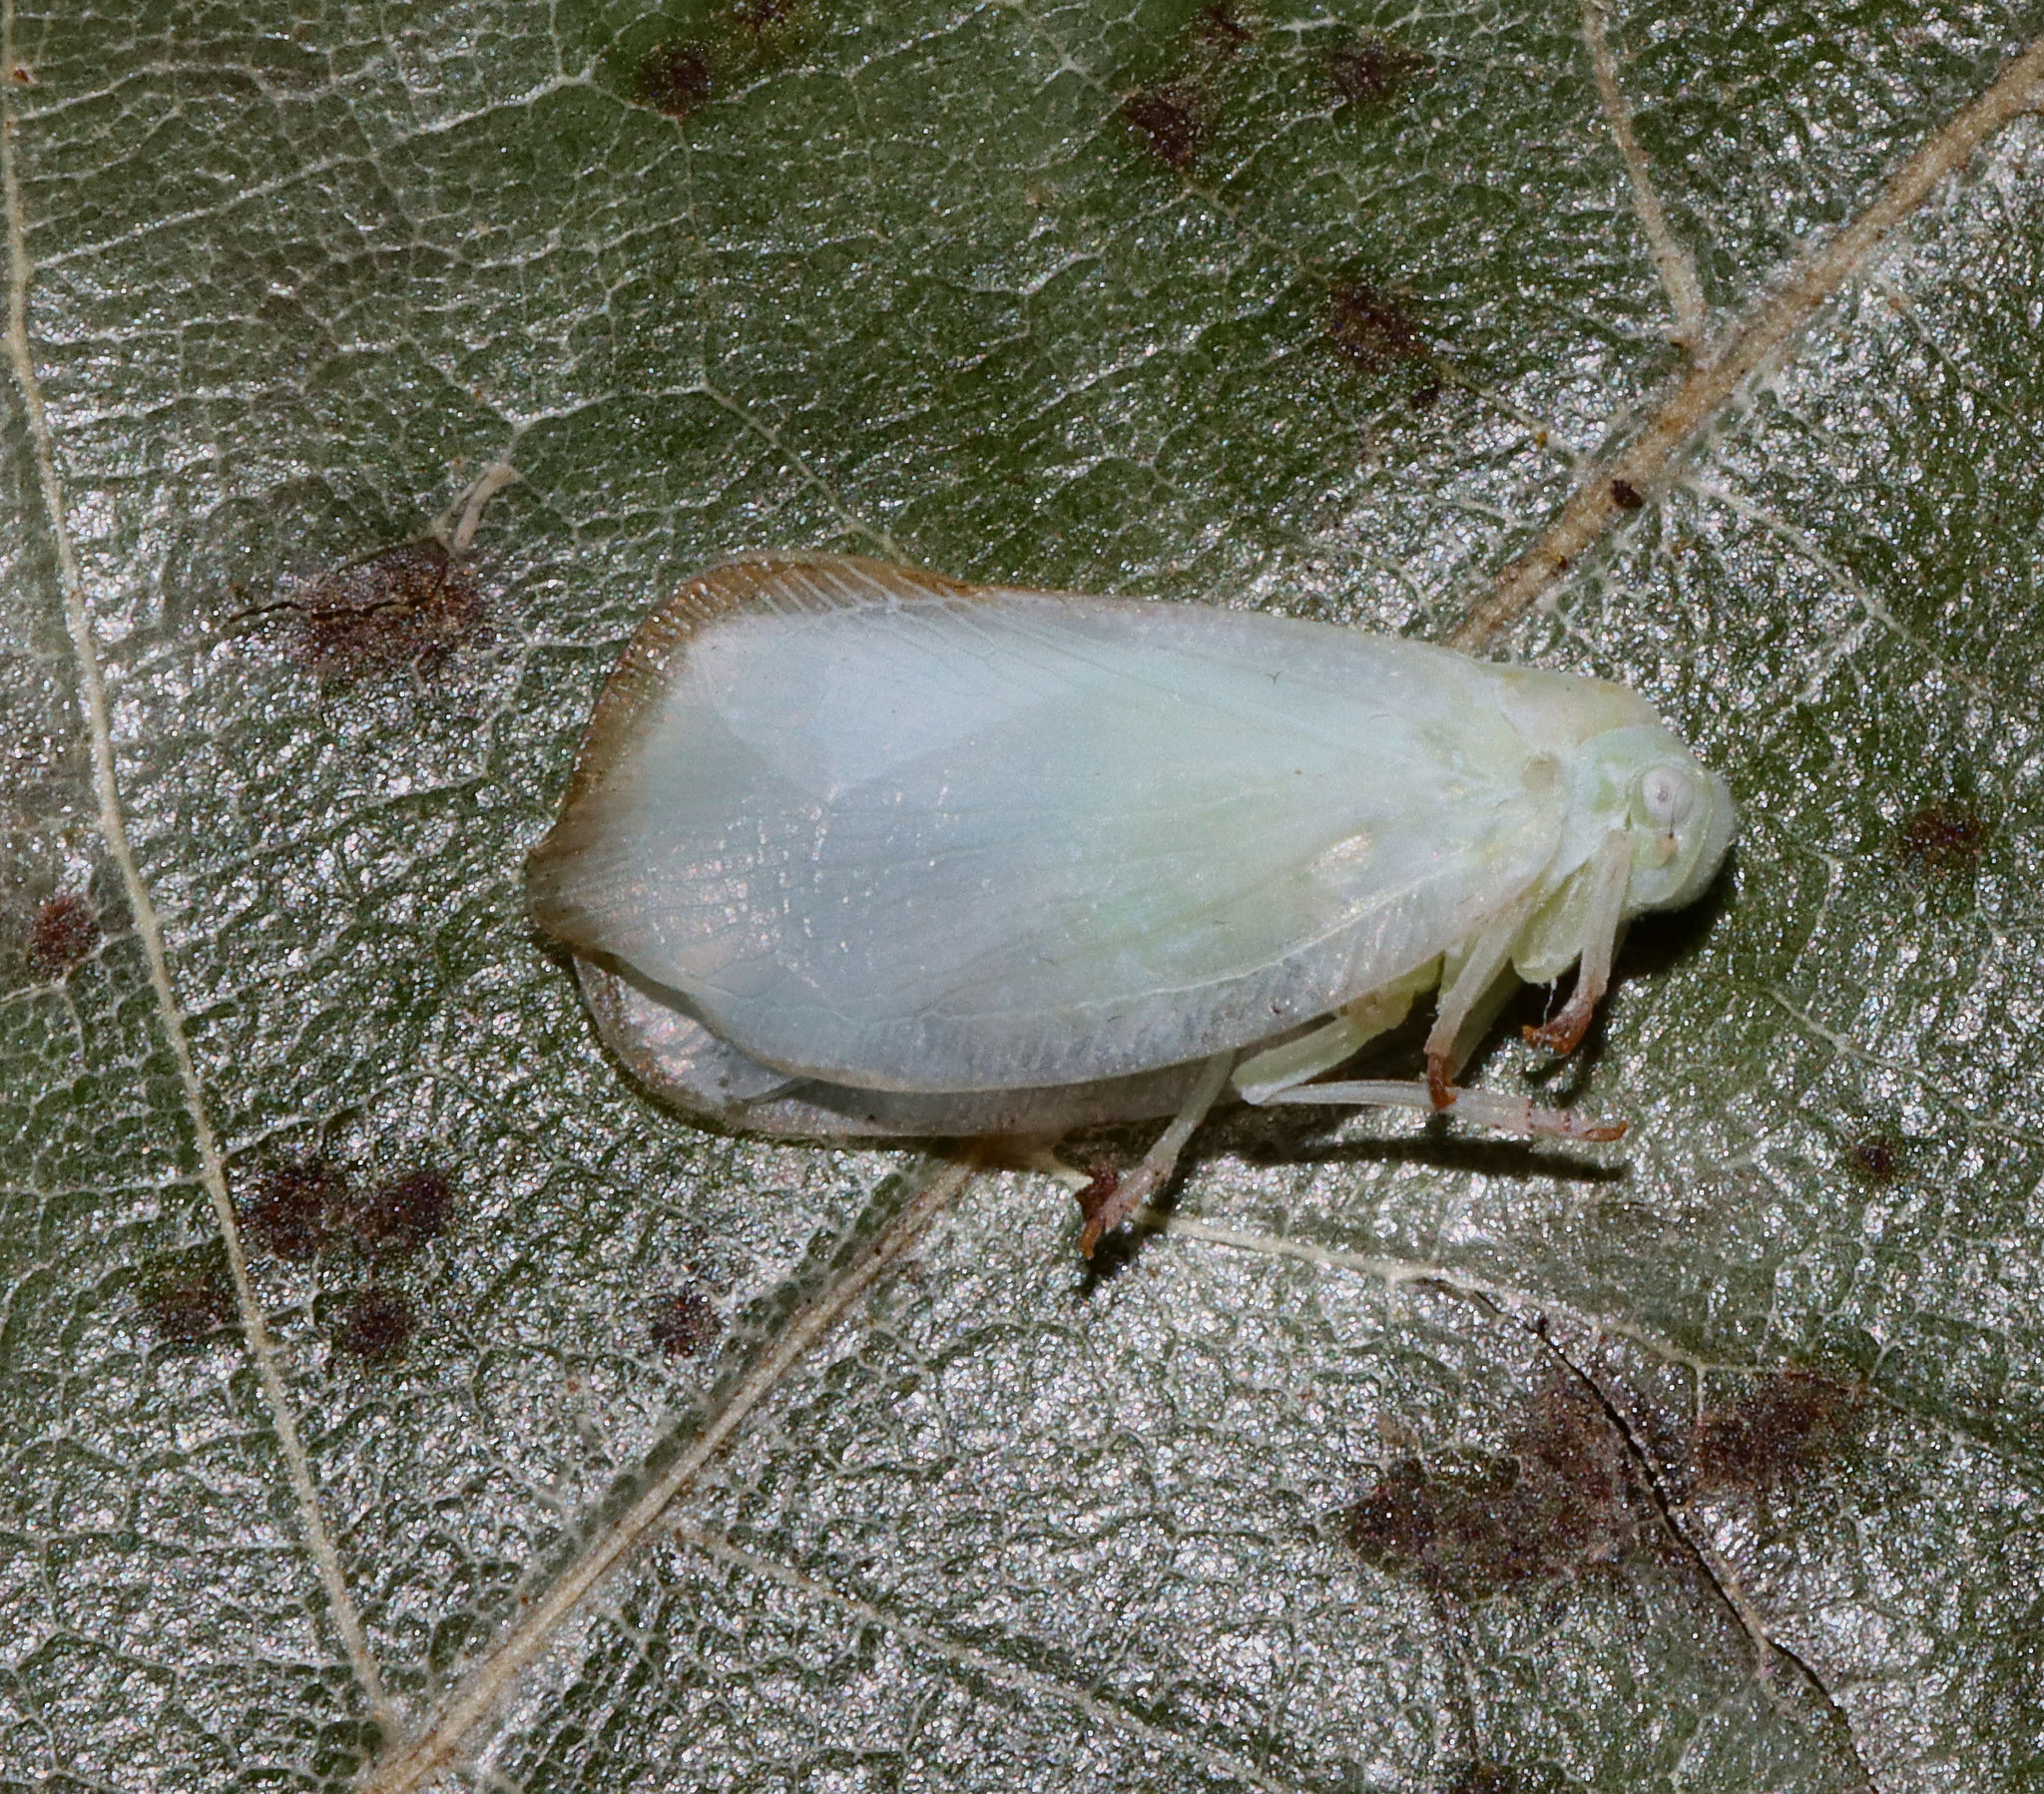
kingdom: Animalia
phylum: Arthropoda
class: Insecta
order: Hemiptera
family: Flatidae
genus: Ormenoides
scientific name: Ormenoides venusta
